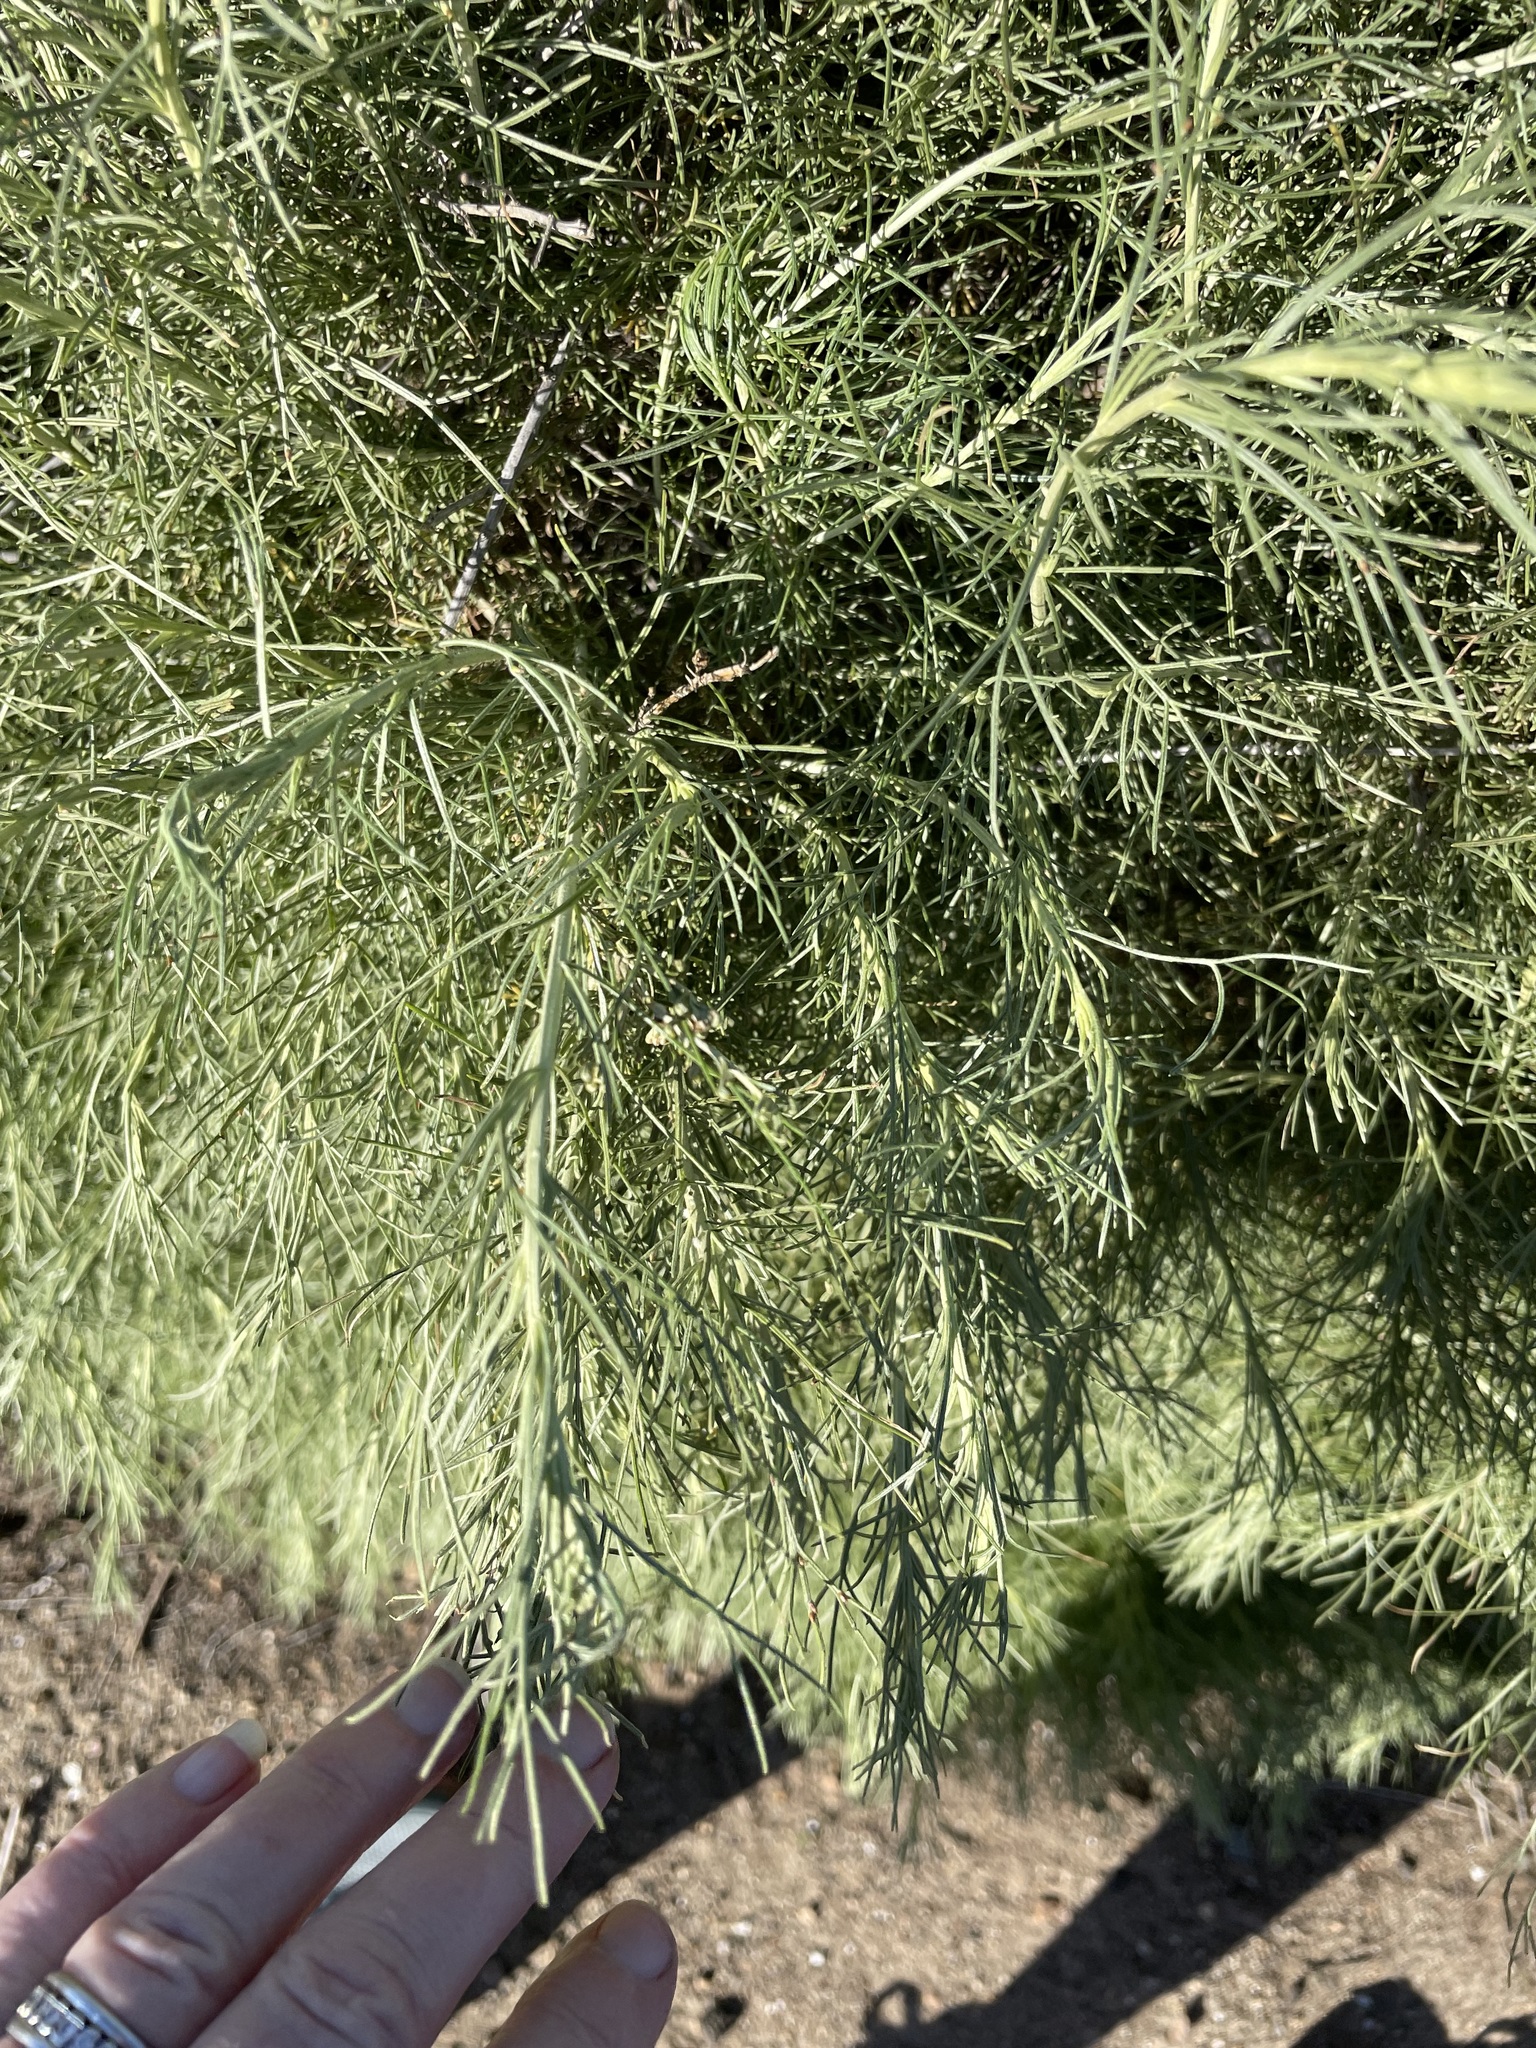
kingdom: Plantae
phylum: Tracheophyta
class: Magnoliopsida
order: Asterales
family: Asteraceae
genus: Artemisia
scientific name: Artemisia californica
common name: California sagebrush
